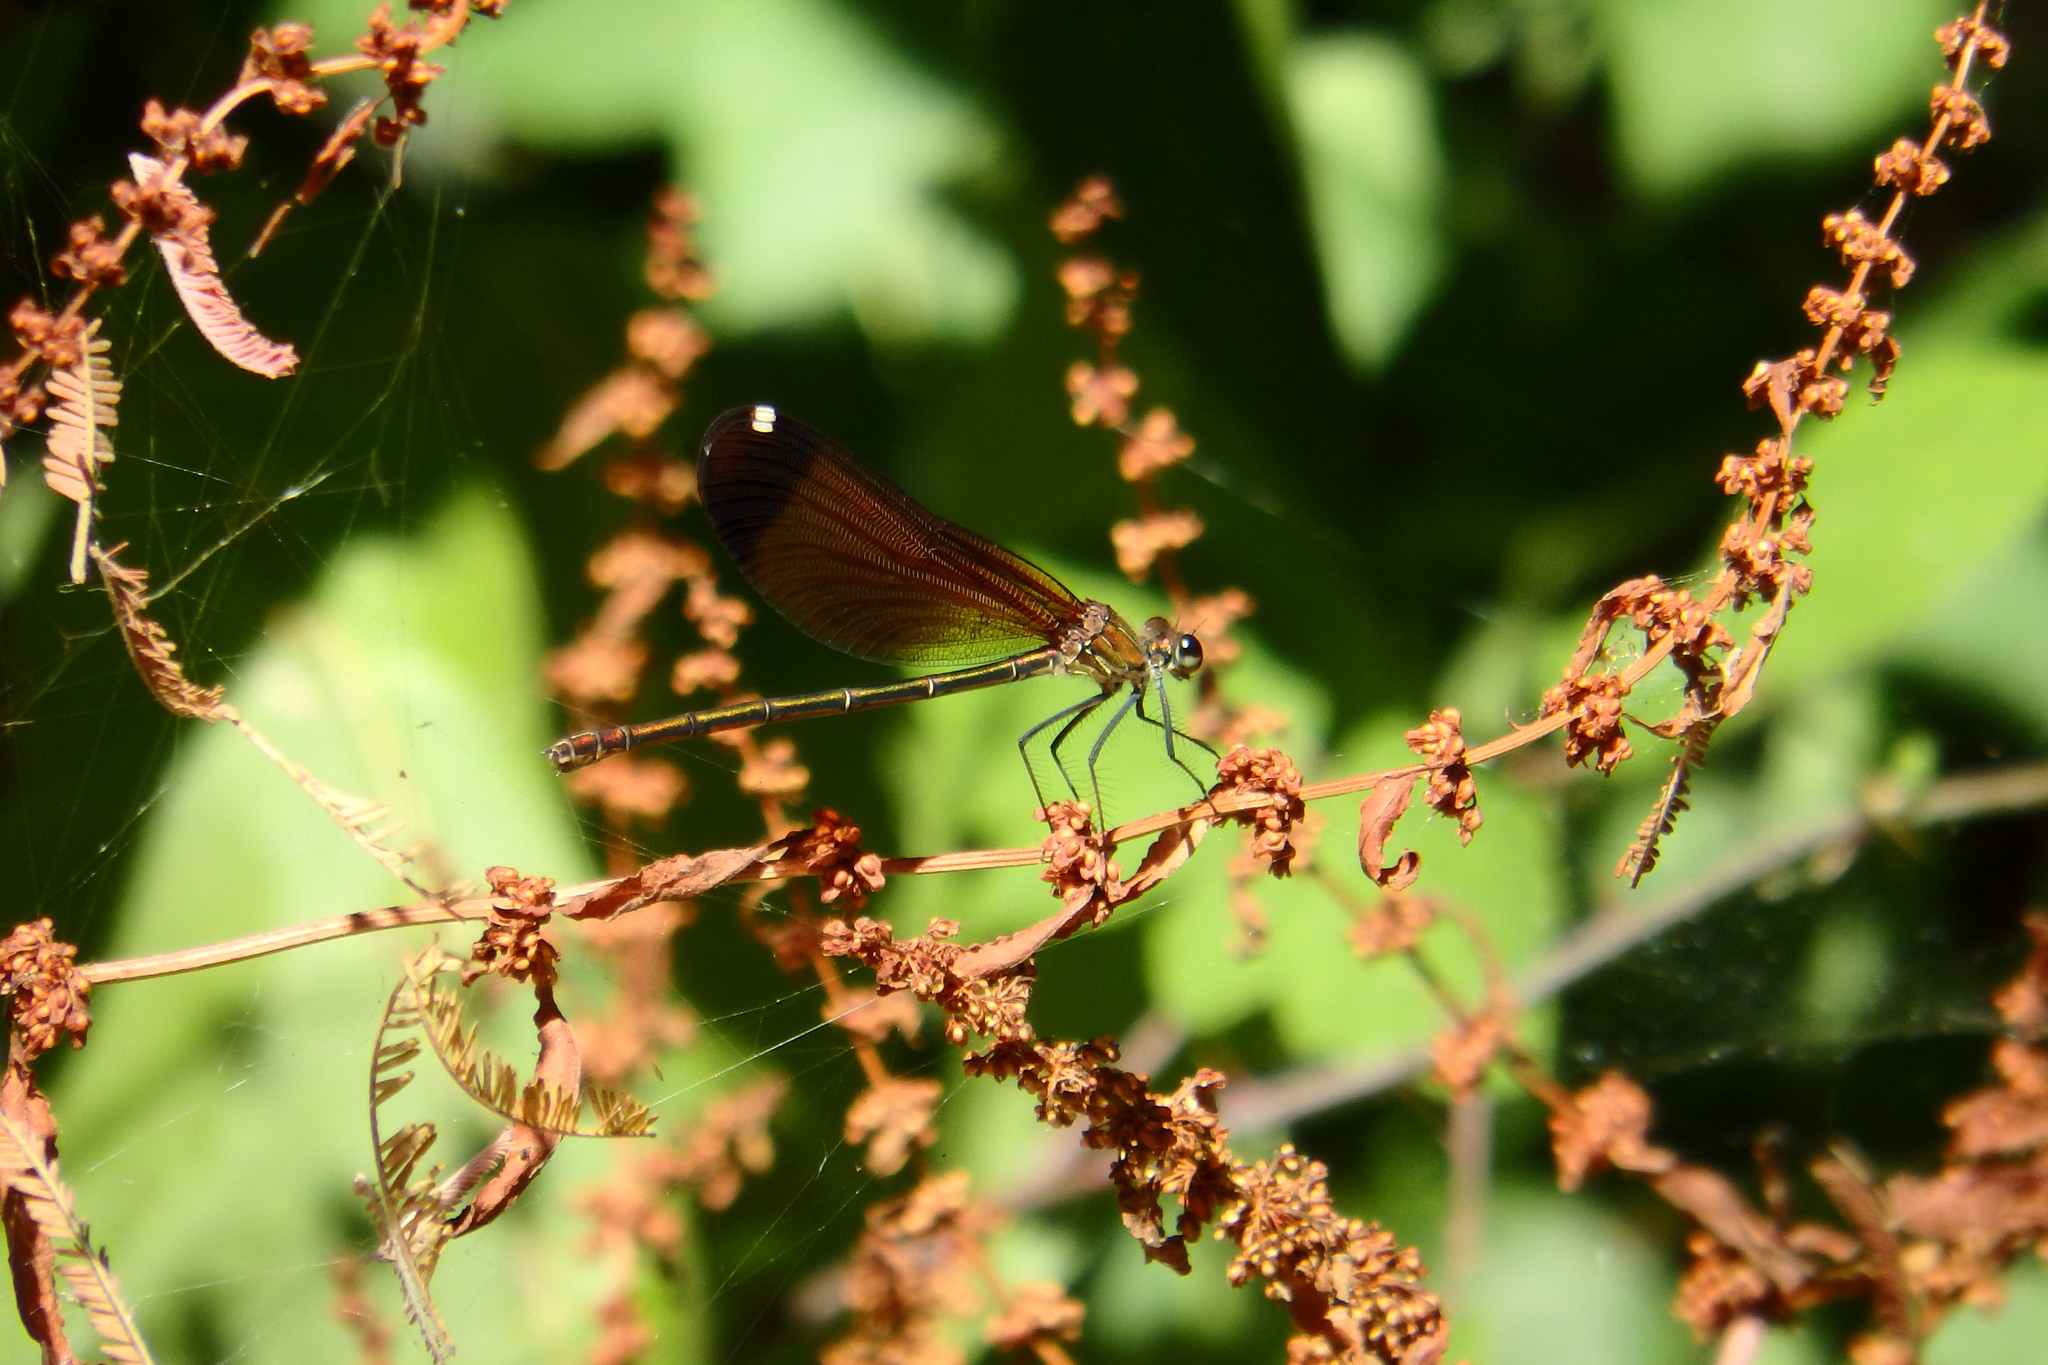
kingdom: Animalia
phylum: Arthropoda
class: Insecta
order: Odonata
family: Calopterygidae
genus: Calopteryx
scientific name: Calopteryx haemorrhoidalis
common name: Copper demoiselle
